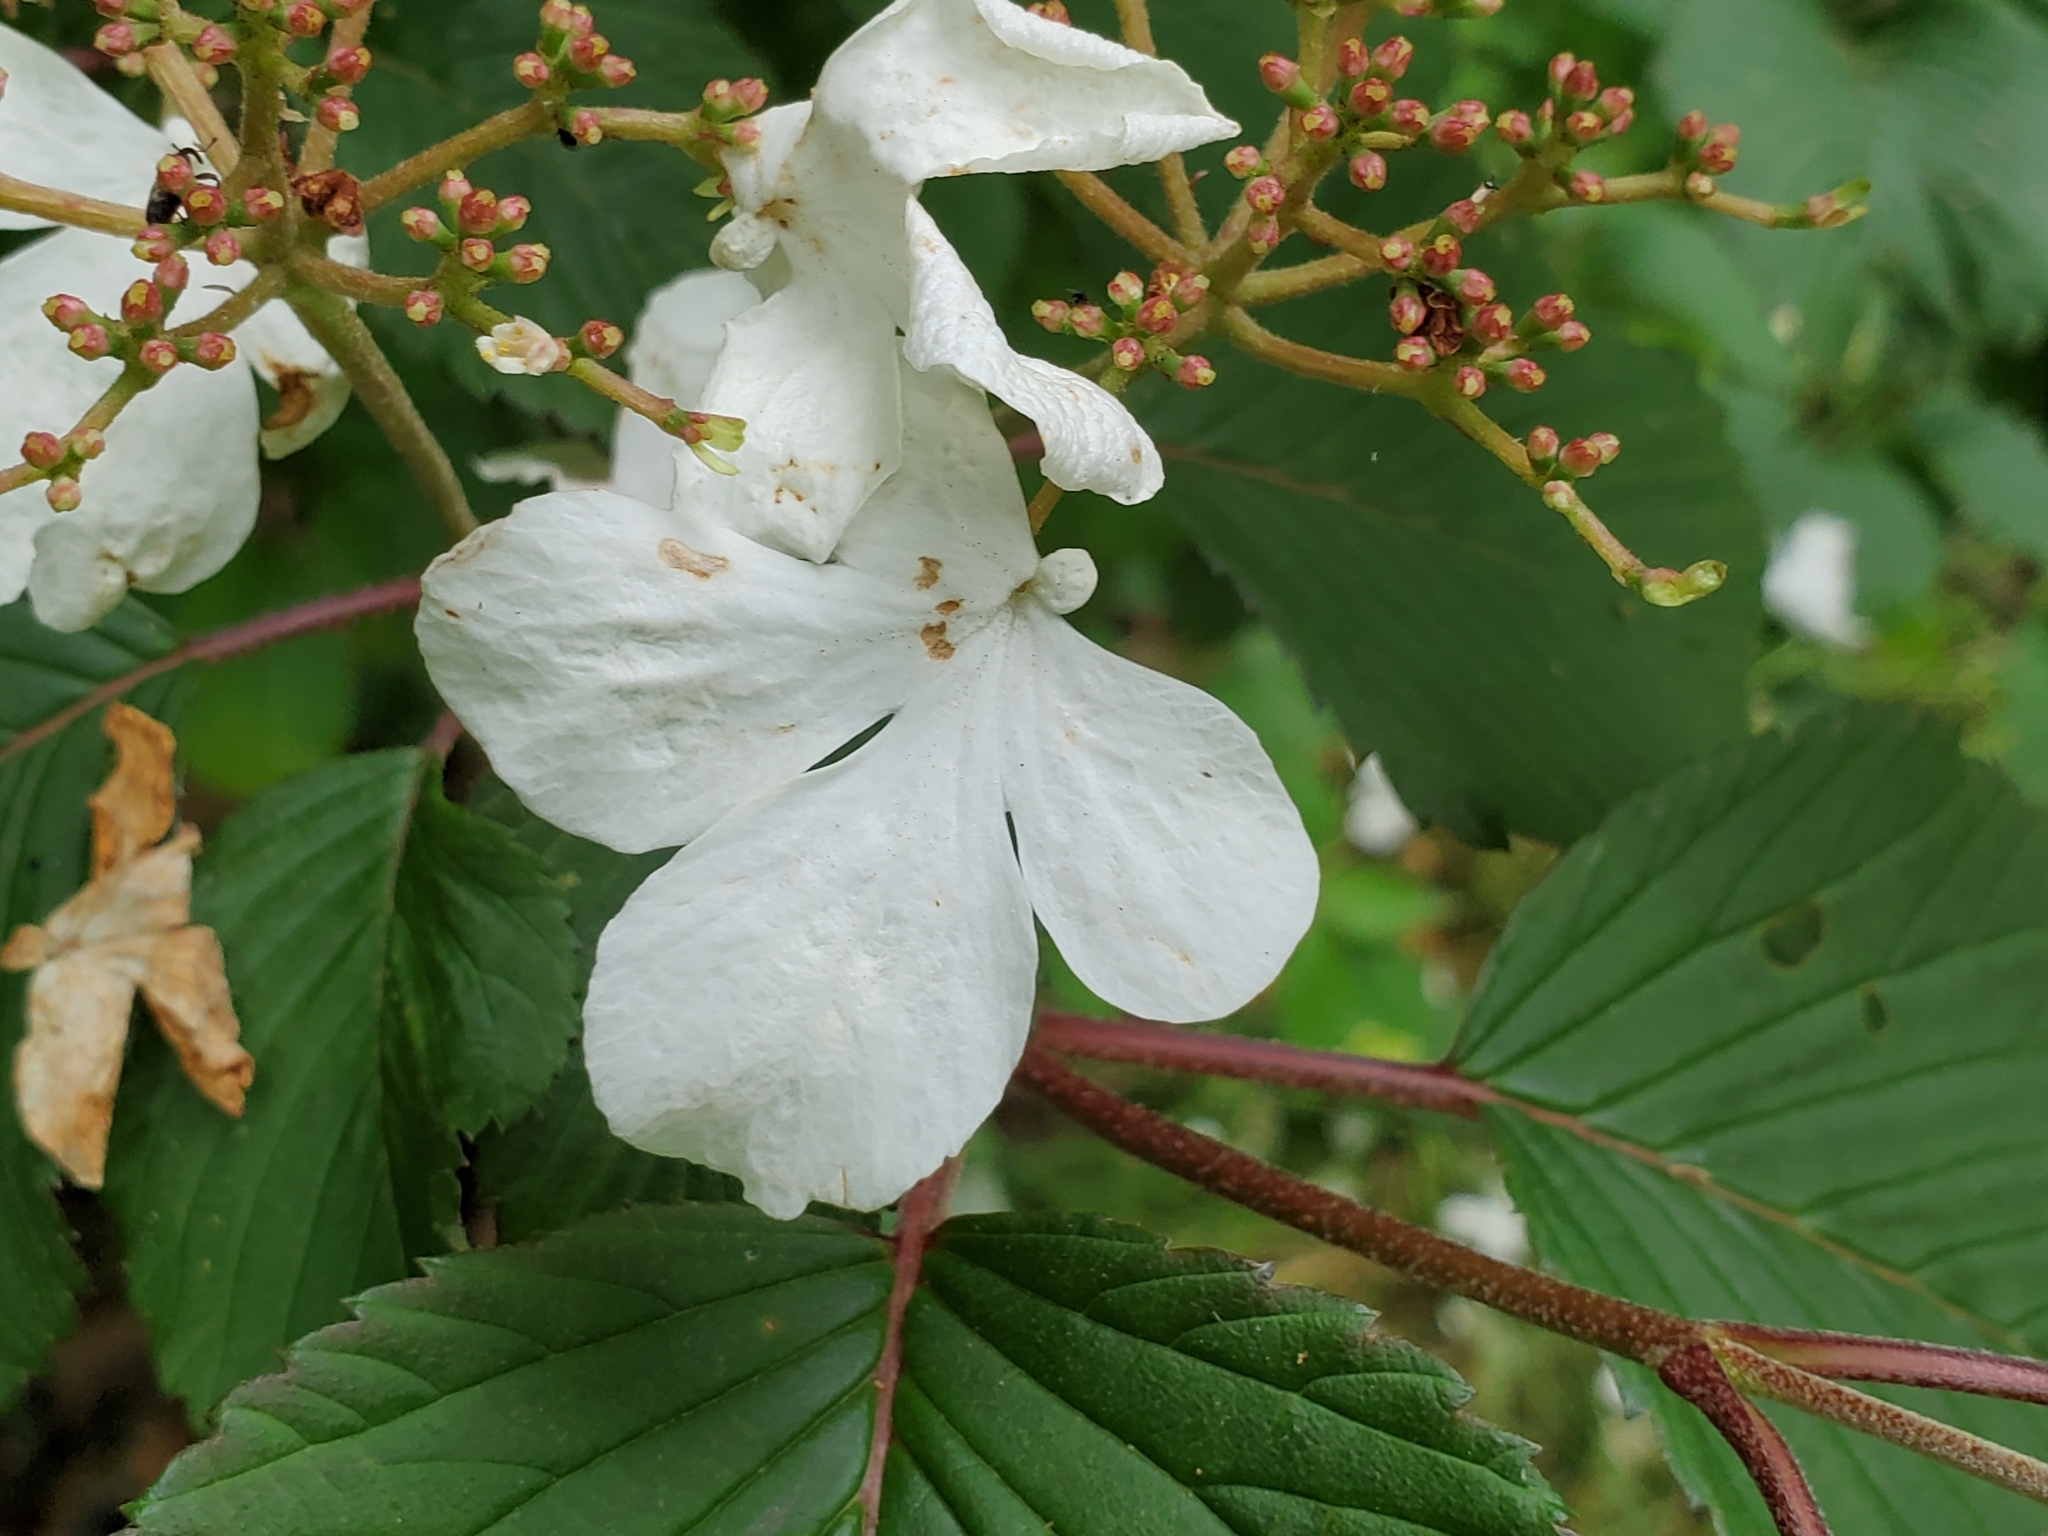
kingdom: Plantae
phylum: Tracheophyta
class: Magnoliopsida
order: Dipsacales
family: Viburnaceae
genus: Viburnum
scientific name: Viburnum plicatum
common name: Japanese snowball
